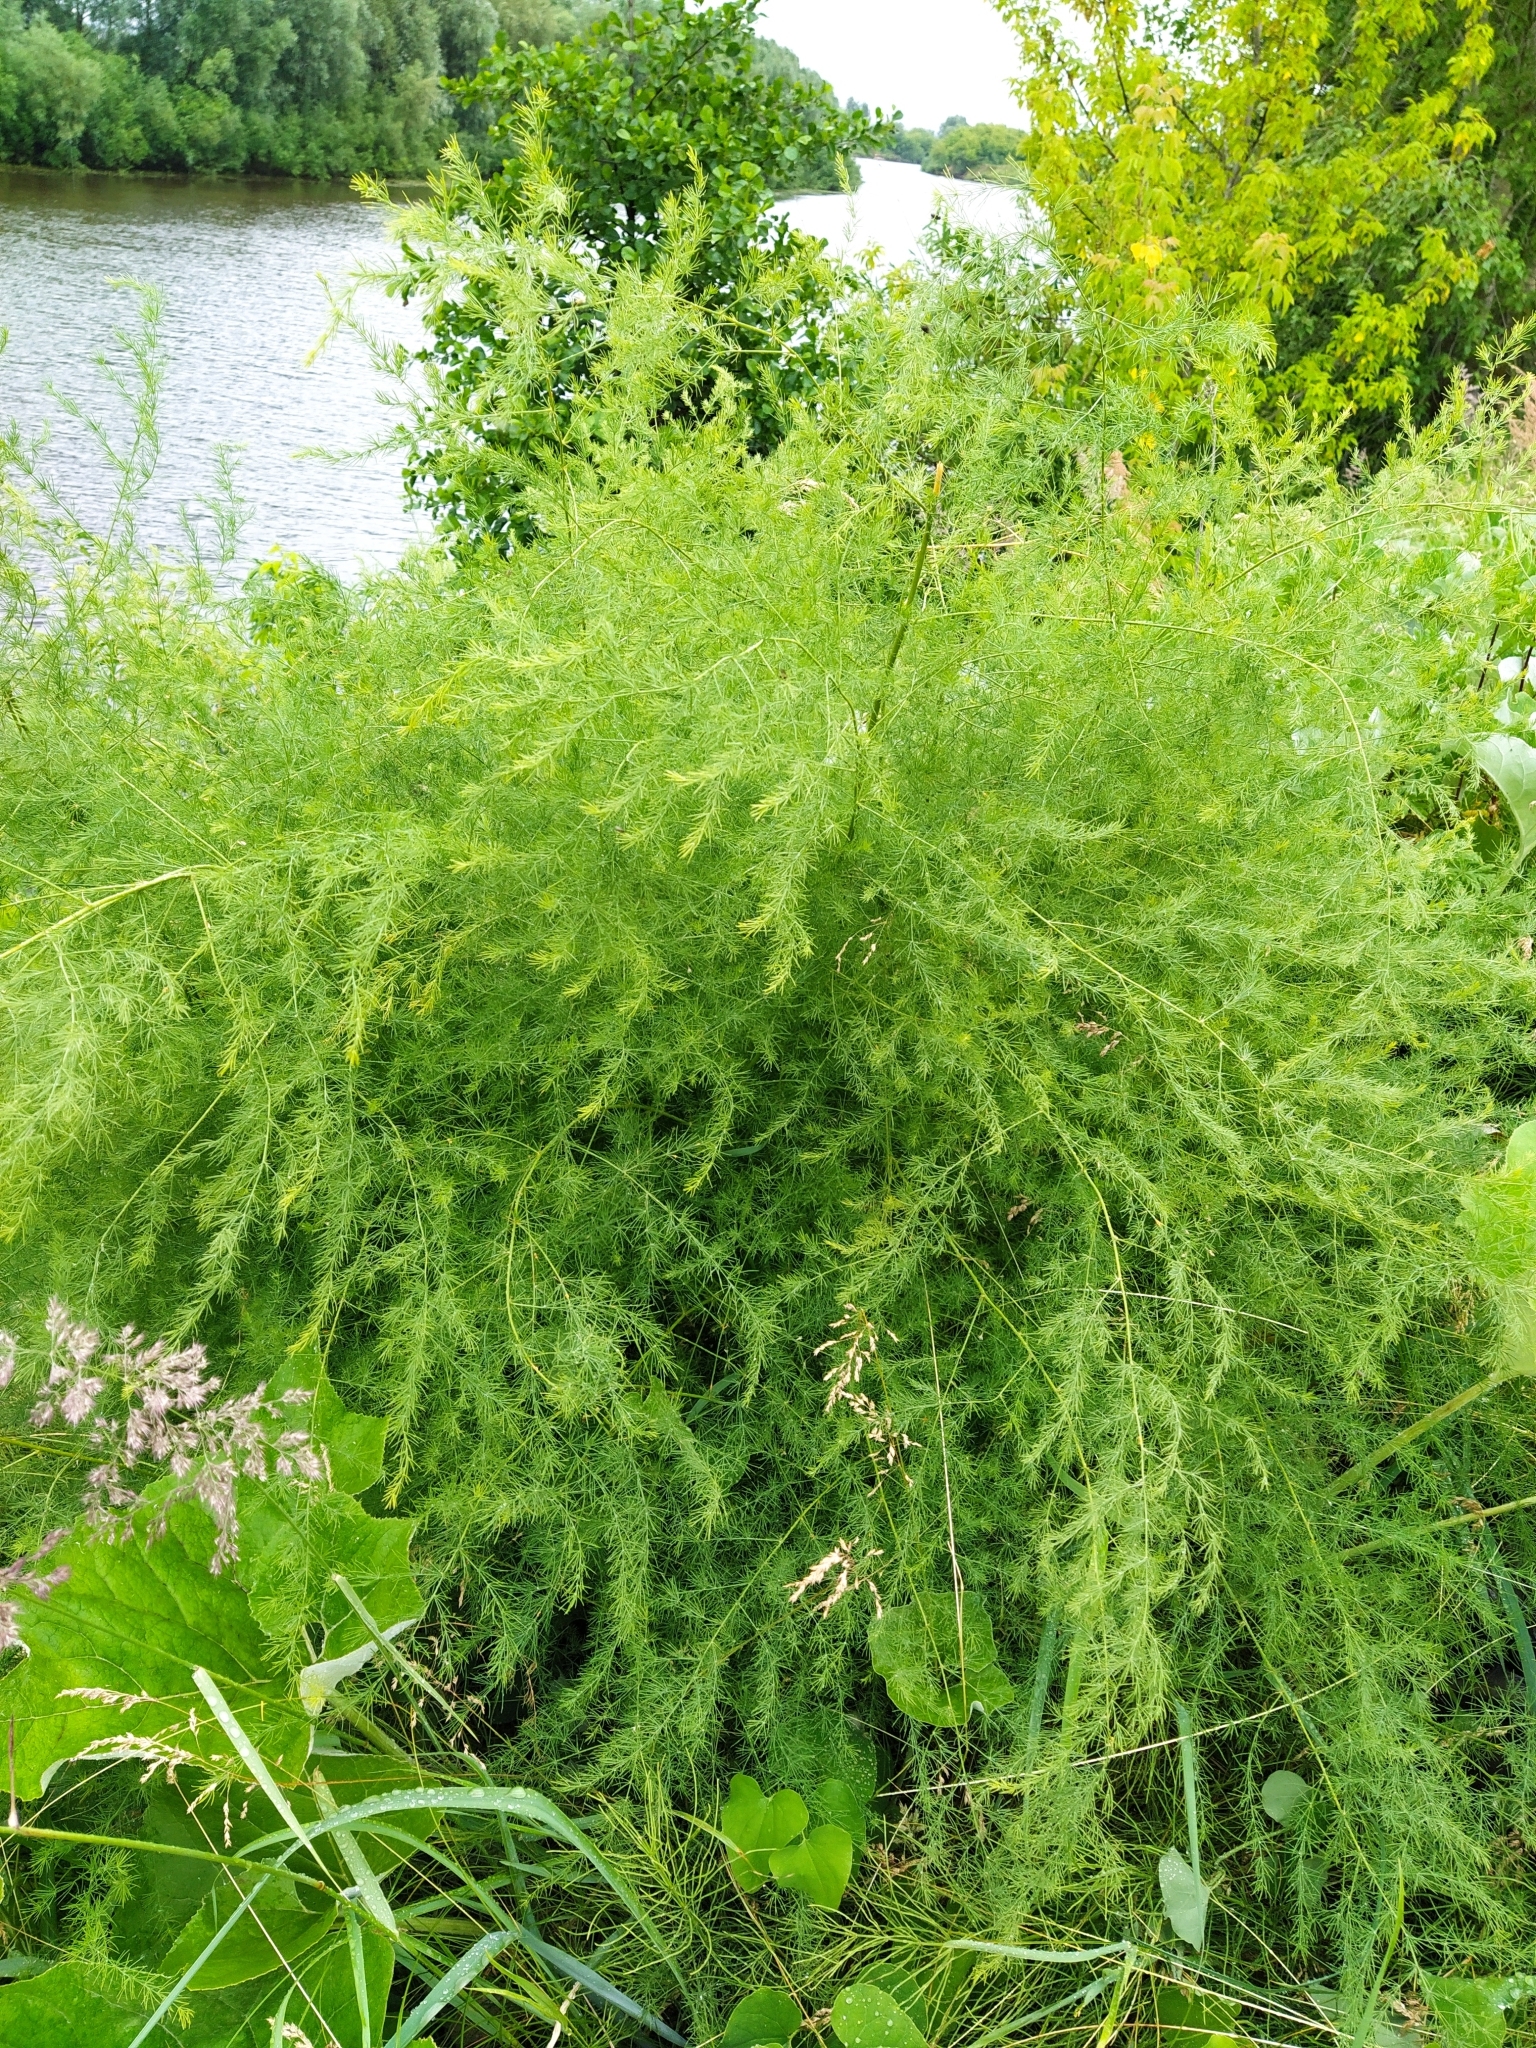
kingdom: Plantae
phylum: Tracheophyta
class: Liliopsida
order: Asparagales
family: Asparagaceae
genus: Asparagus
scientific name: Asparagus officinalis
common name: Garden asparagus
